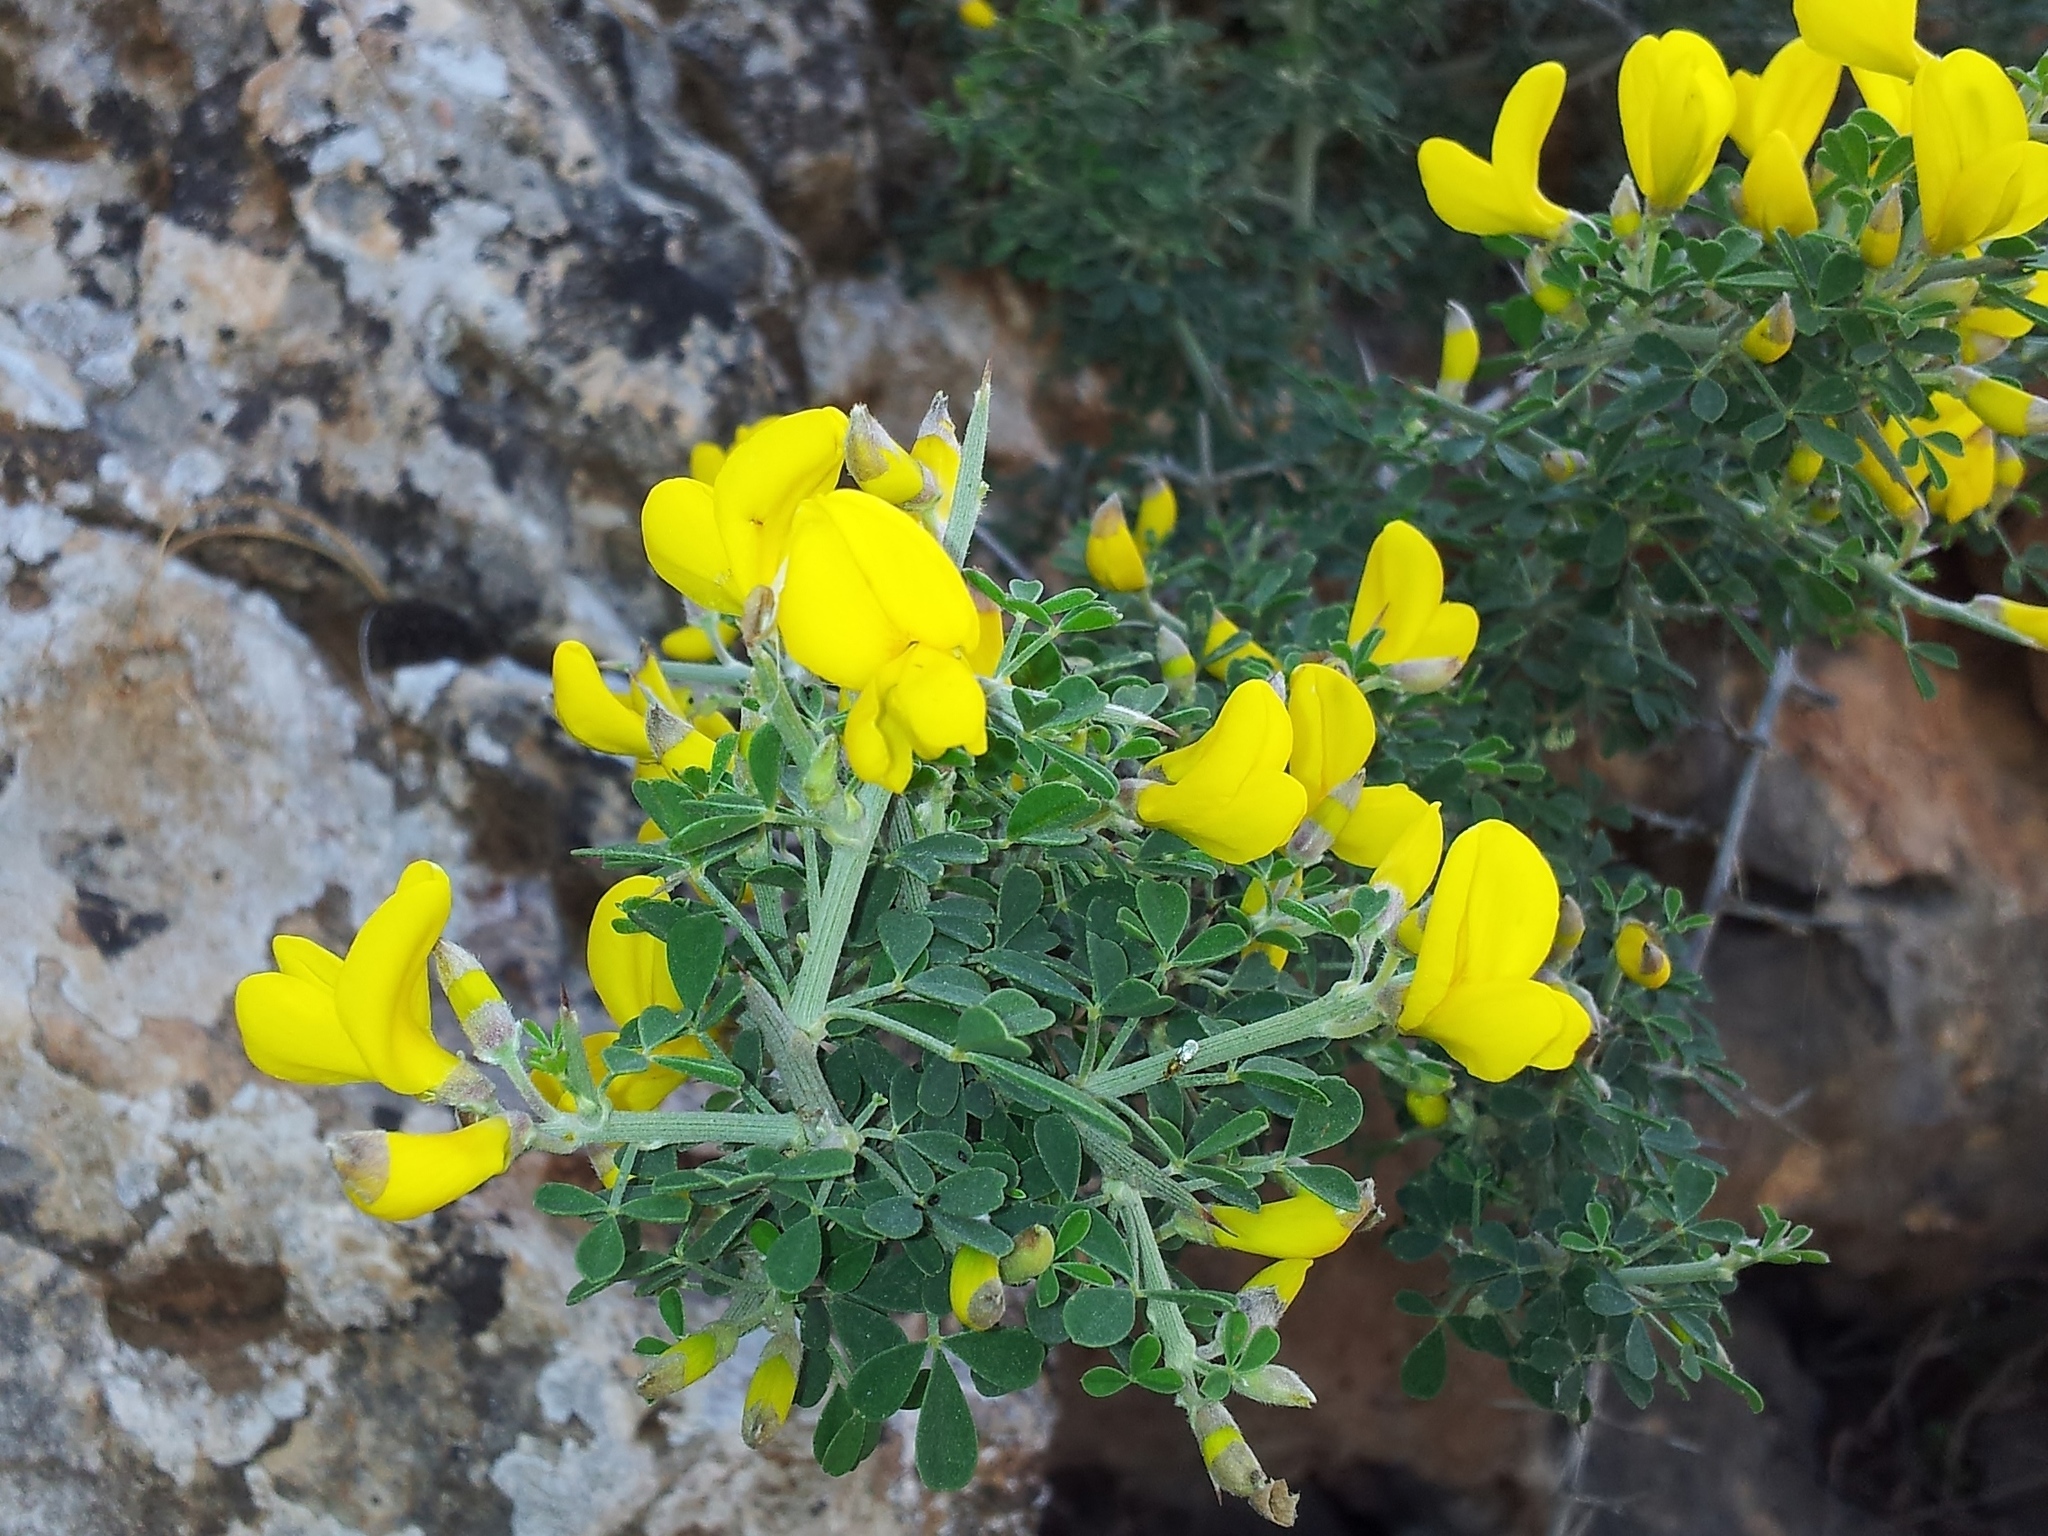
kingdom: Plantae
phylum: Tracheophyta
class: Magnoliopsida
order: Fabales
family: Fabaceae
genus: Calicotome
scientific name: Calicotome villosa
